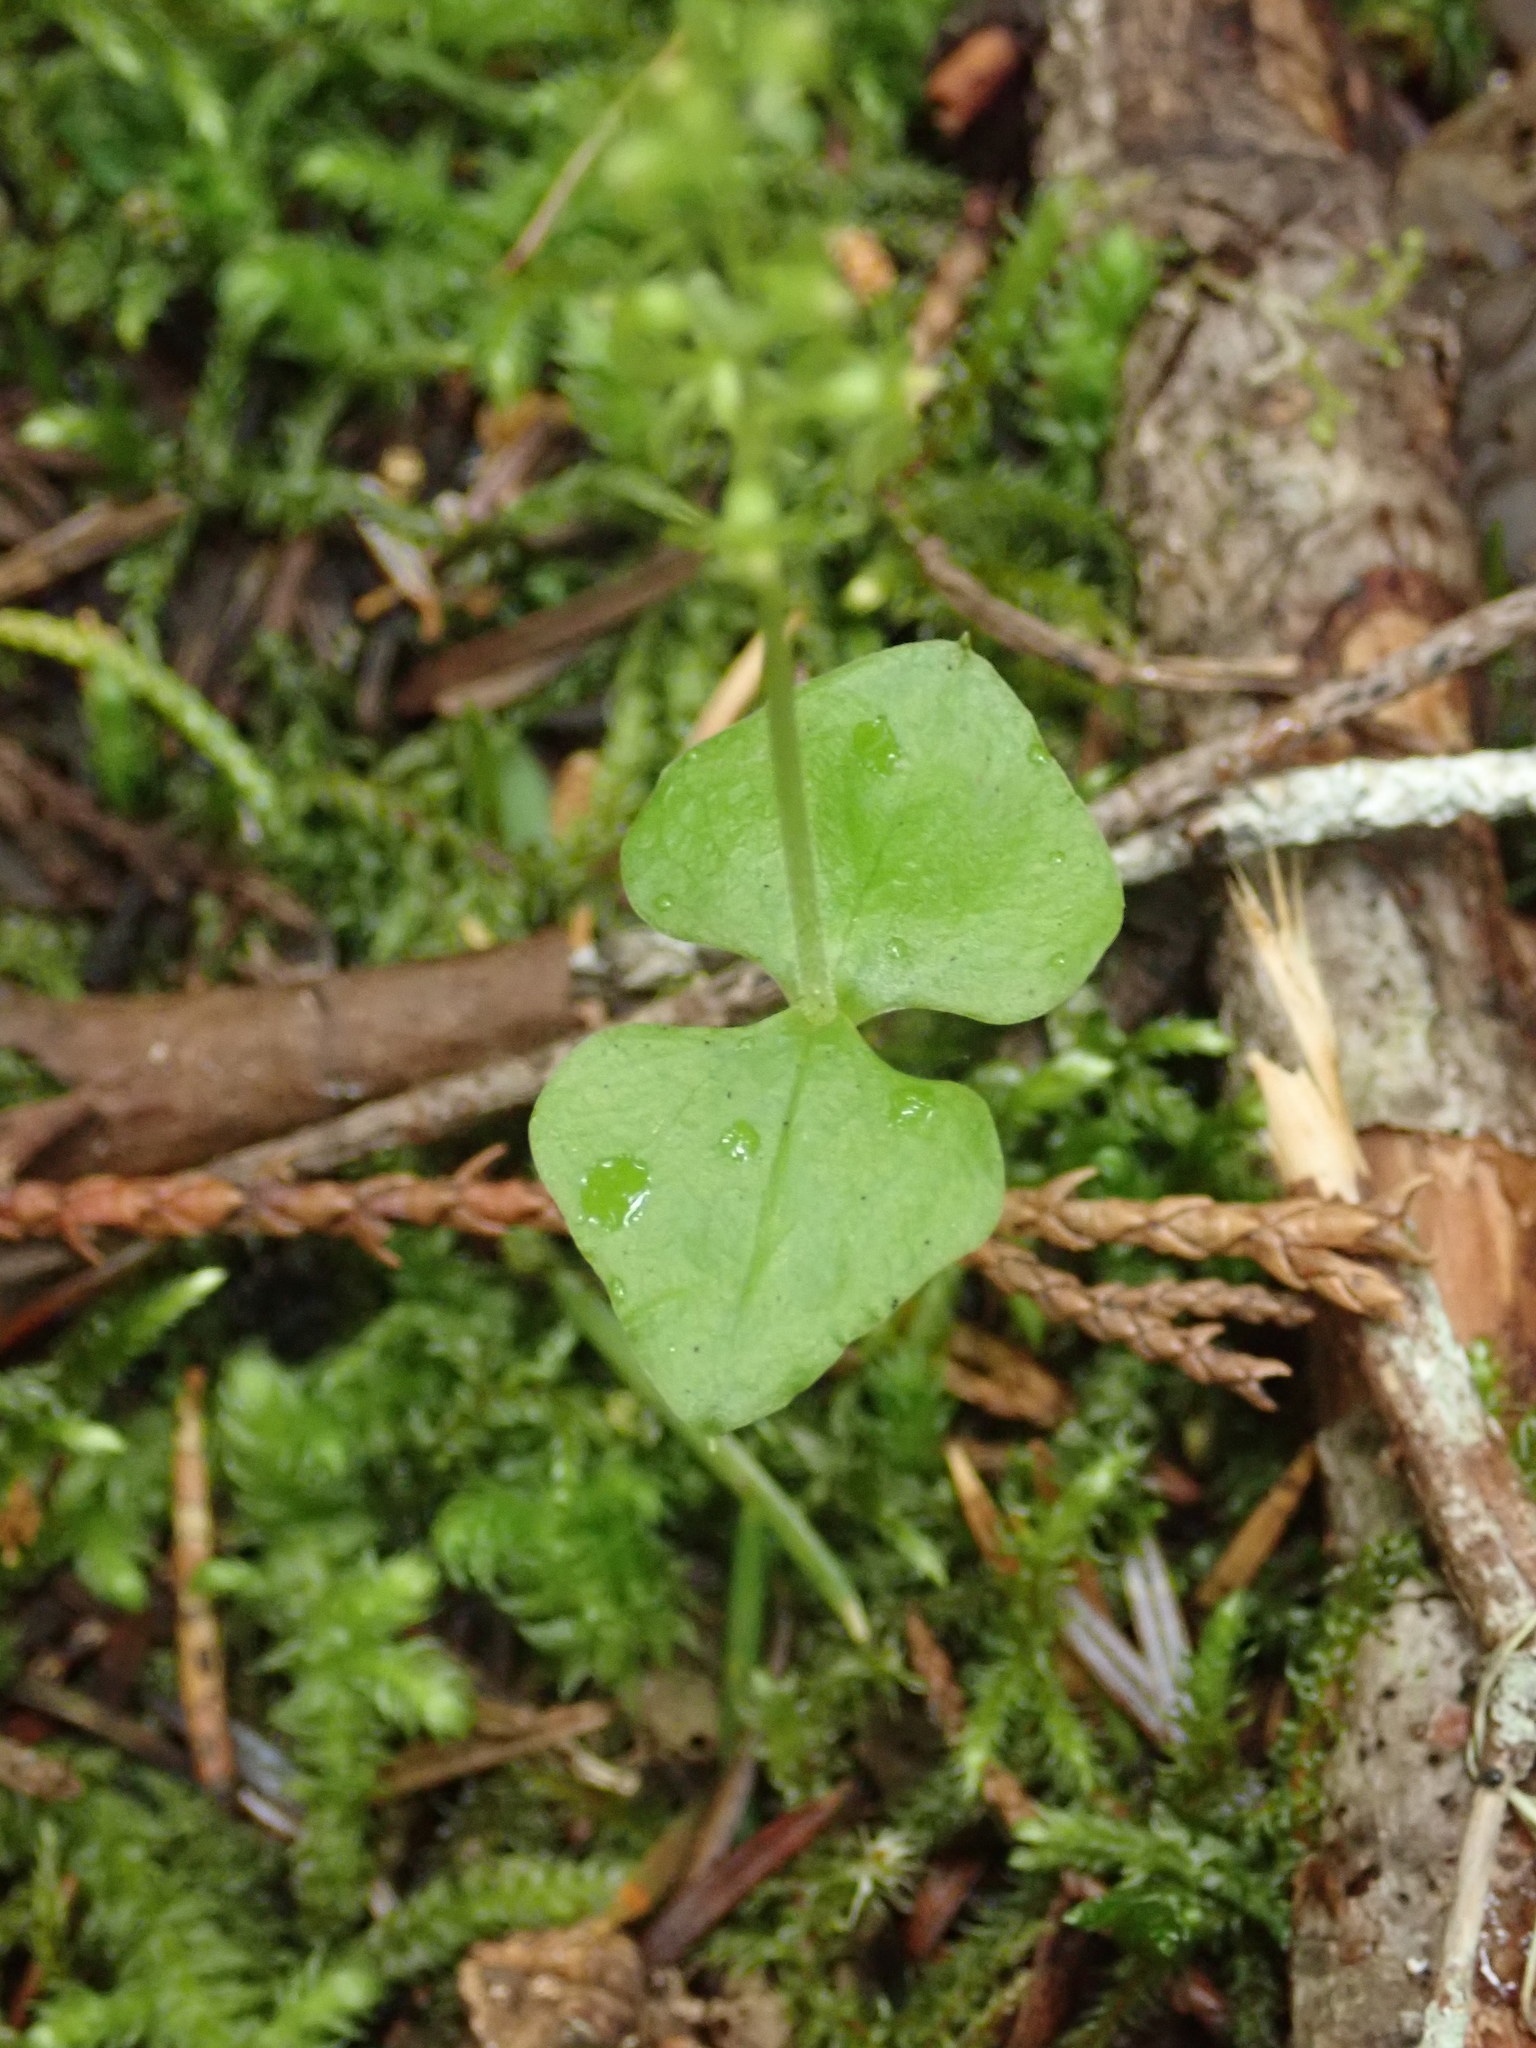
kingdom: Plantae
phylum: Tracheophyta
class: Liliopsida
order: Asparagales
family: Orchidaceae
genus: Neottia
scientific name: Neottia cordata
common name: Lesser twayblade
